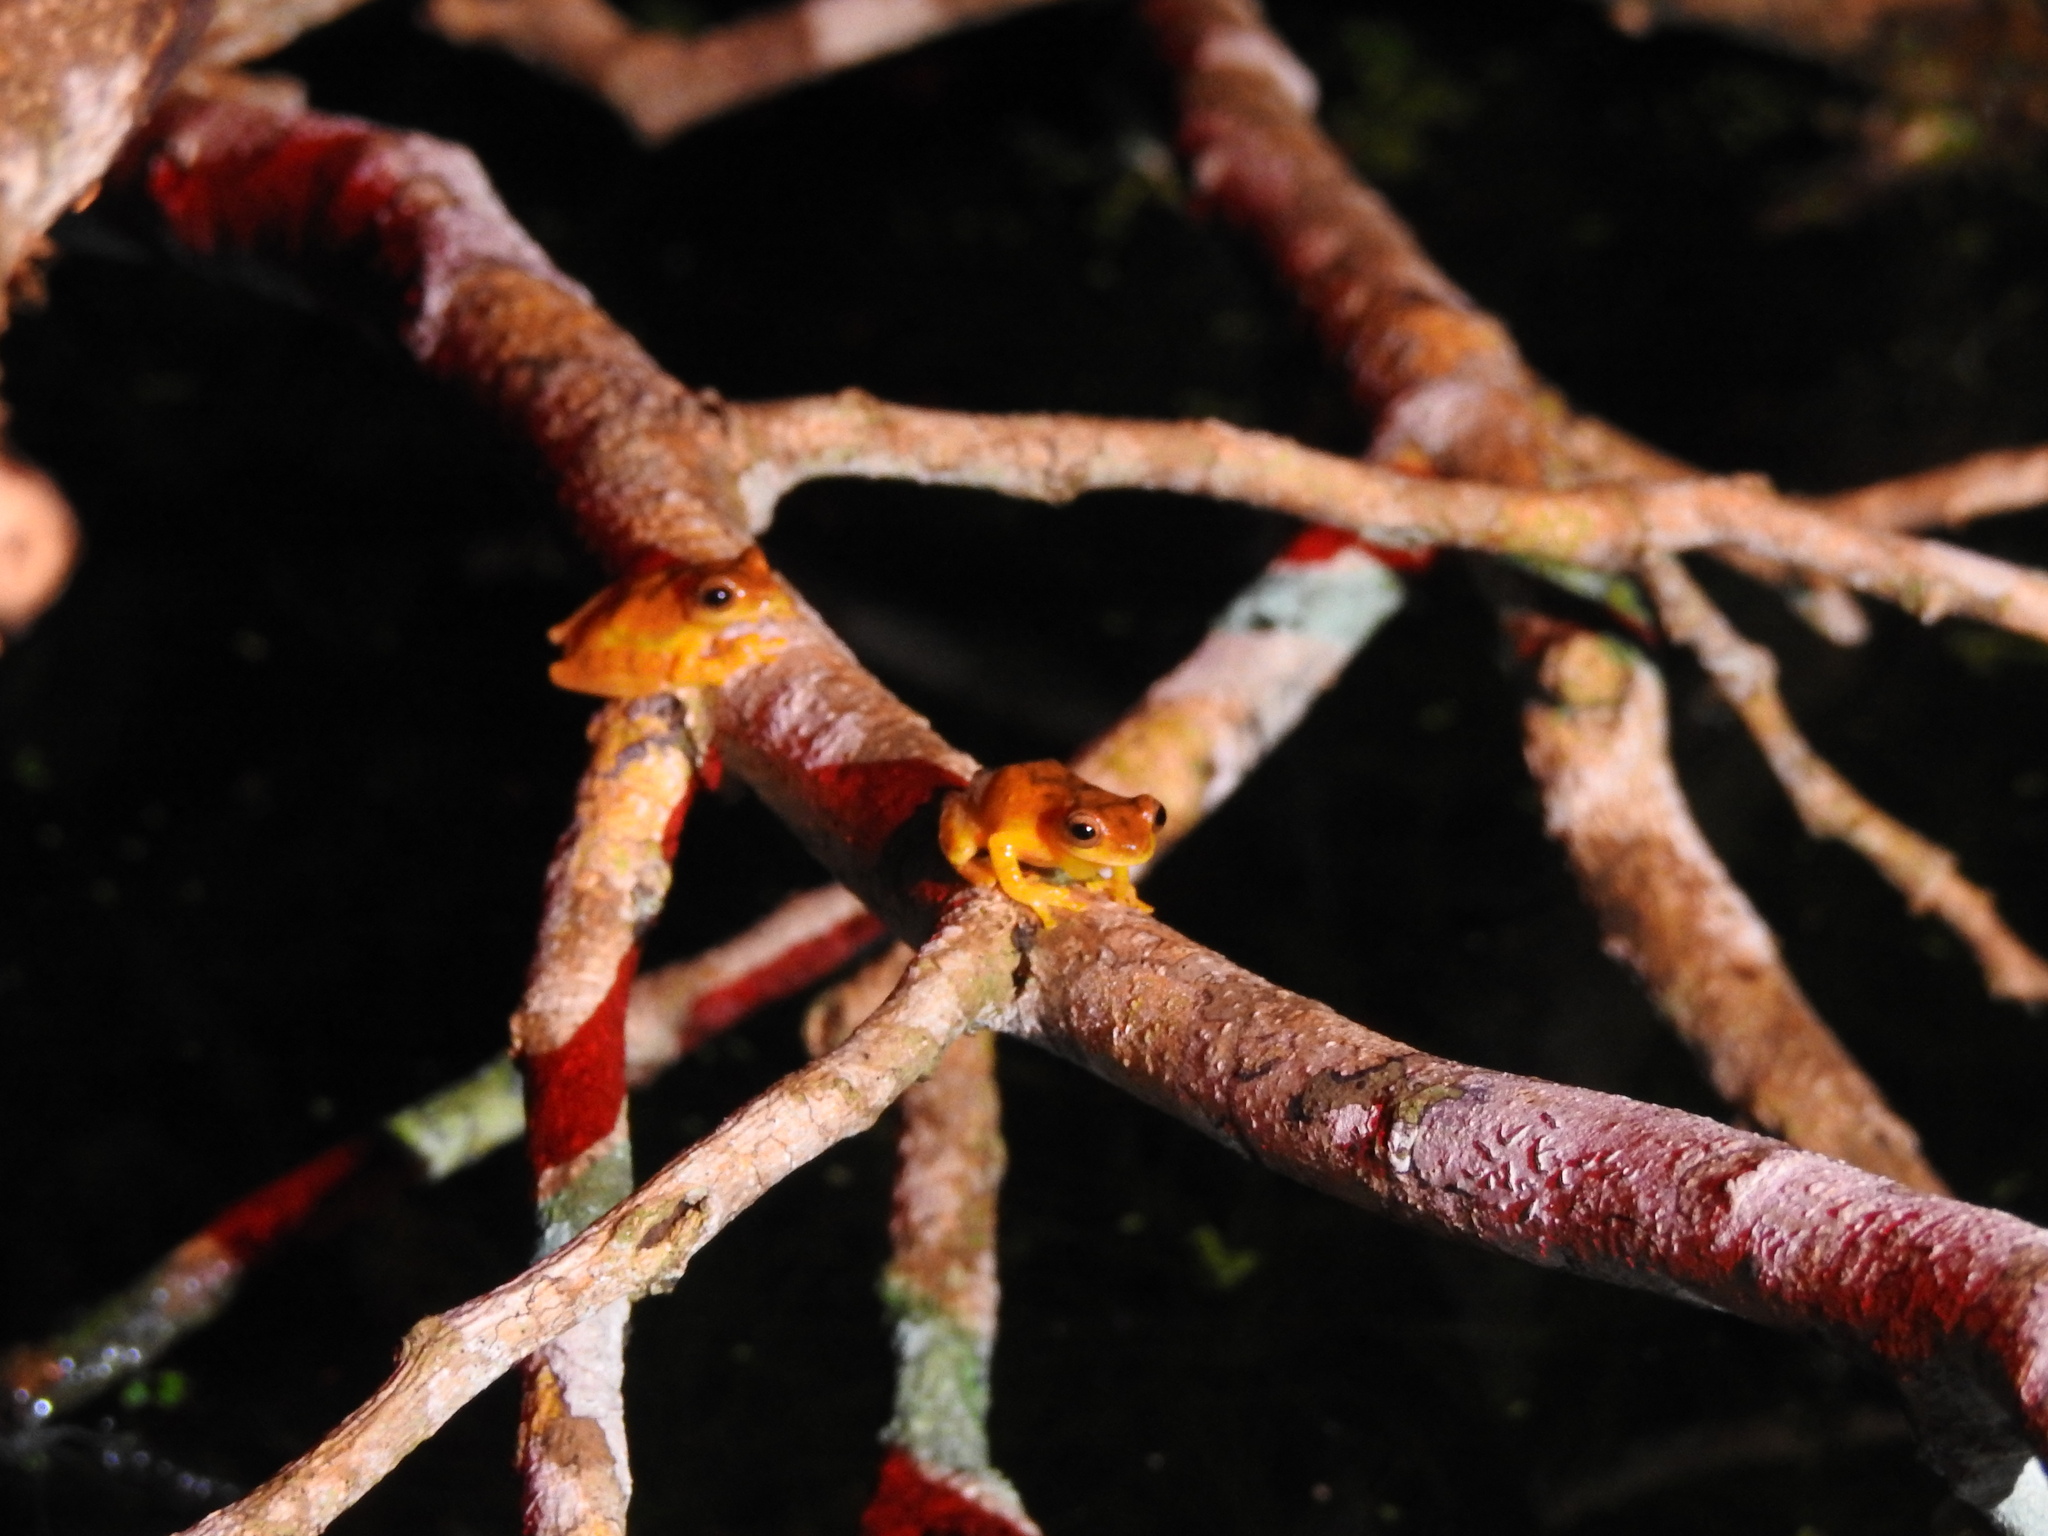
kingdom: Animalia
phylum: Chordata
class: Amphibia
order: Anura
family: Hylidae
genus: Dendropsophus
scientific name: Dendropsophus microcephalus
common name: Small-headed treefrog
